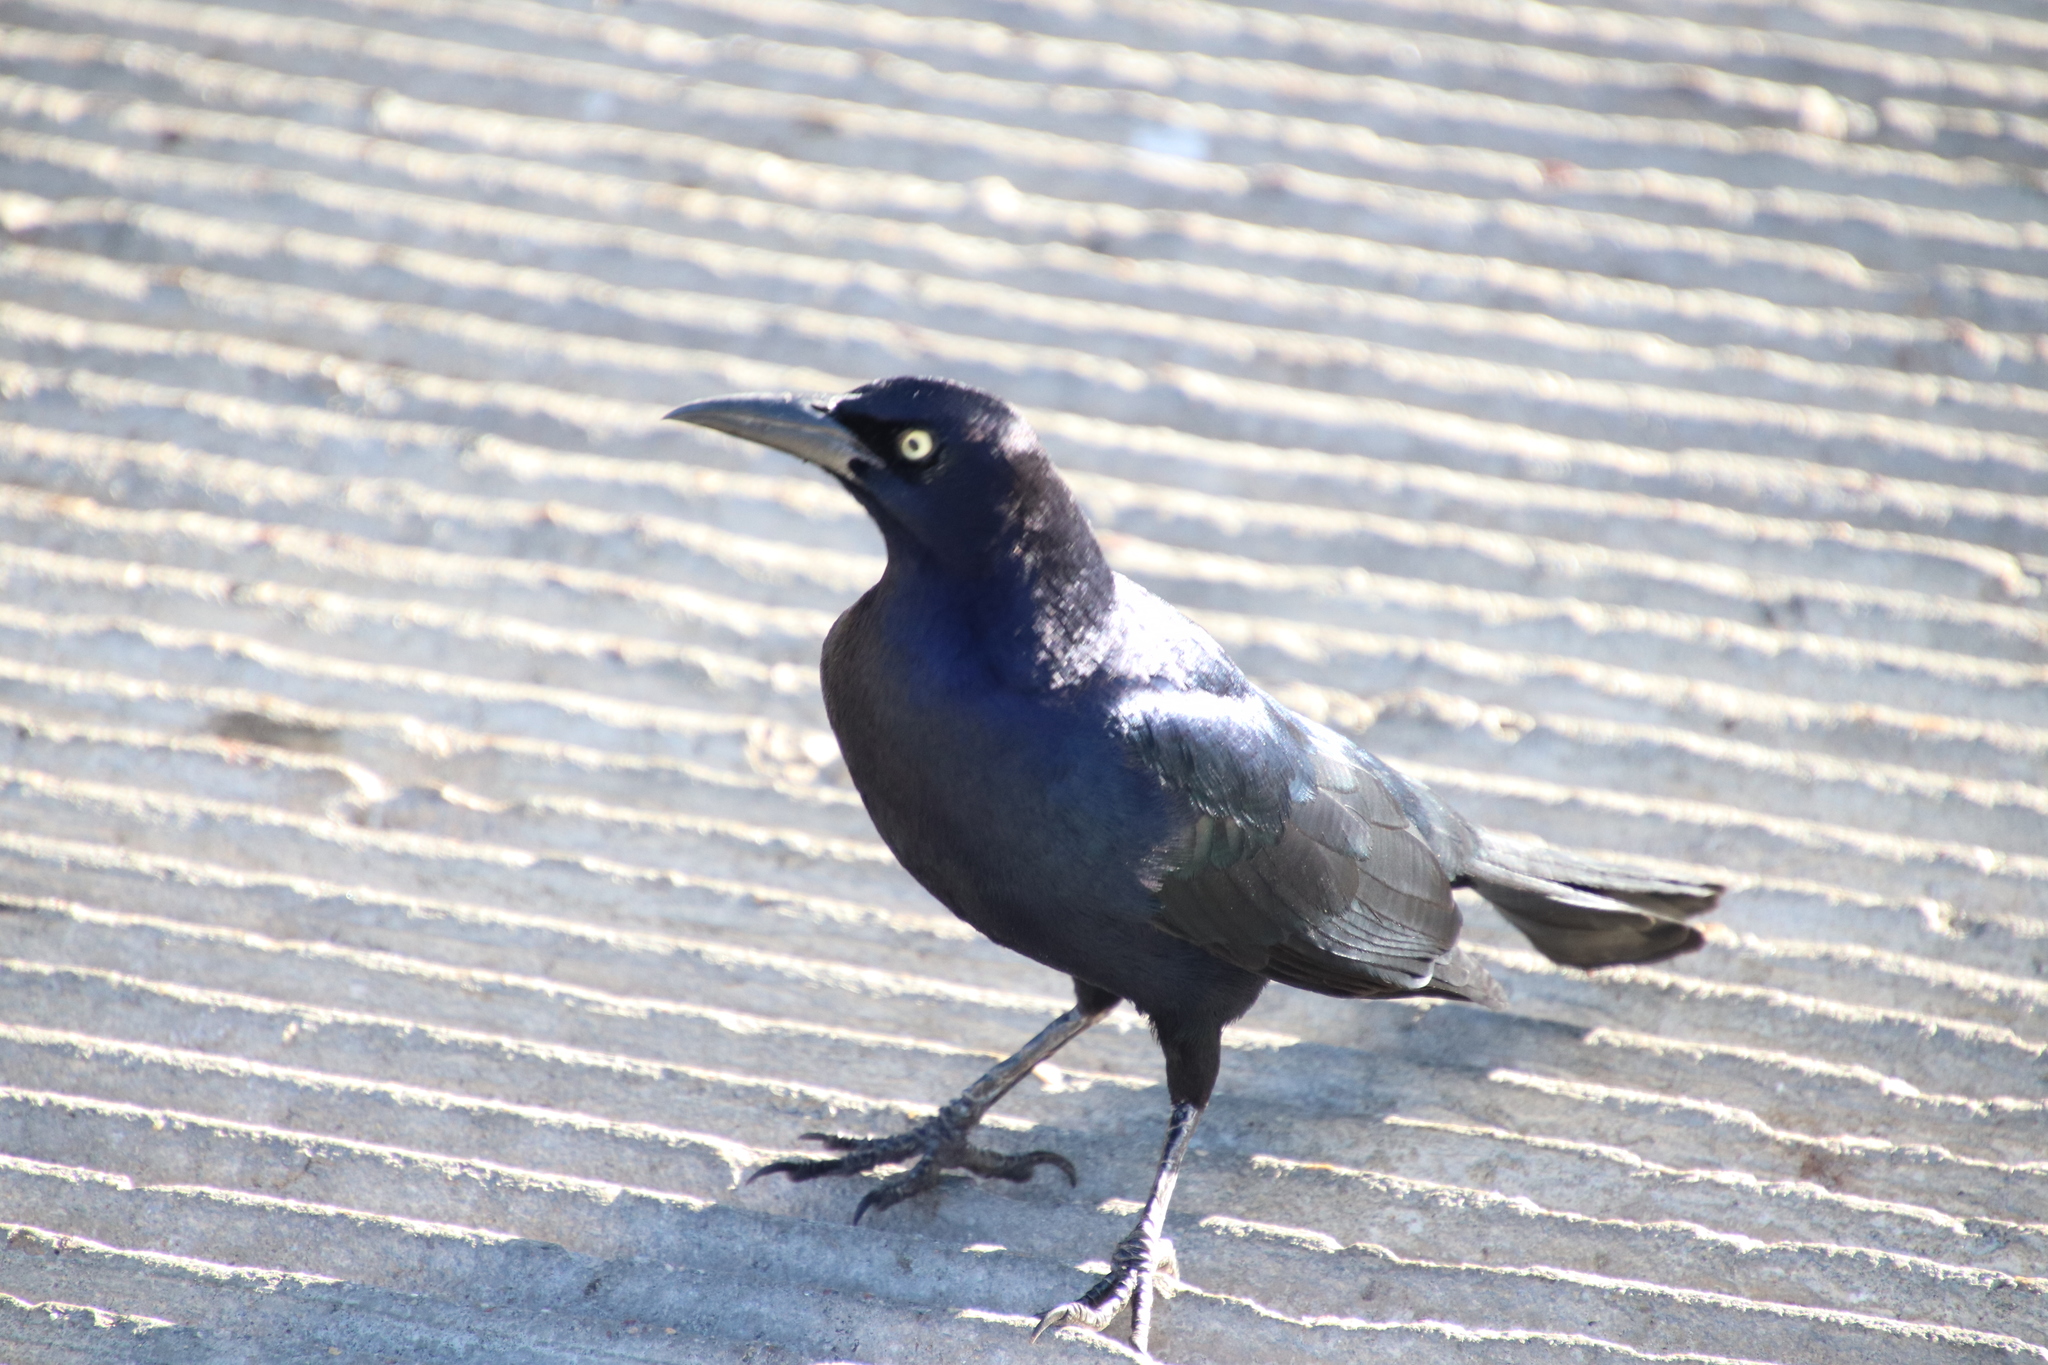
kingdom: Animalia
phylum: Chordata
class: Aves
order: Passeriformes
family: Icteridae
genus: Quiscalus
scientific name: Quiscalus mexicanus
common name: Great-tailed grackle
